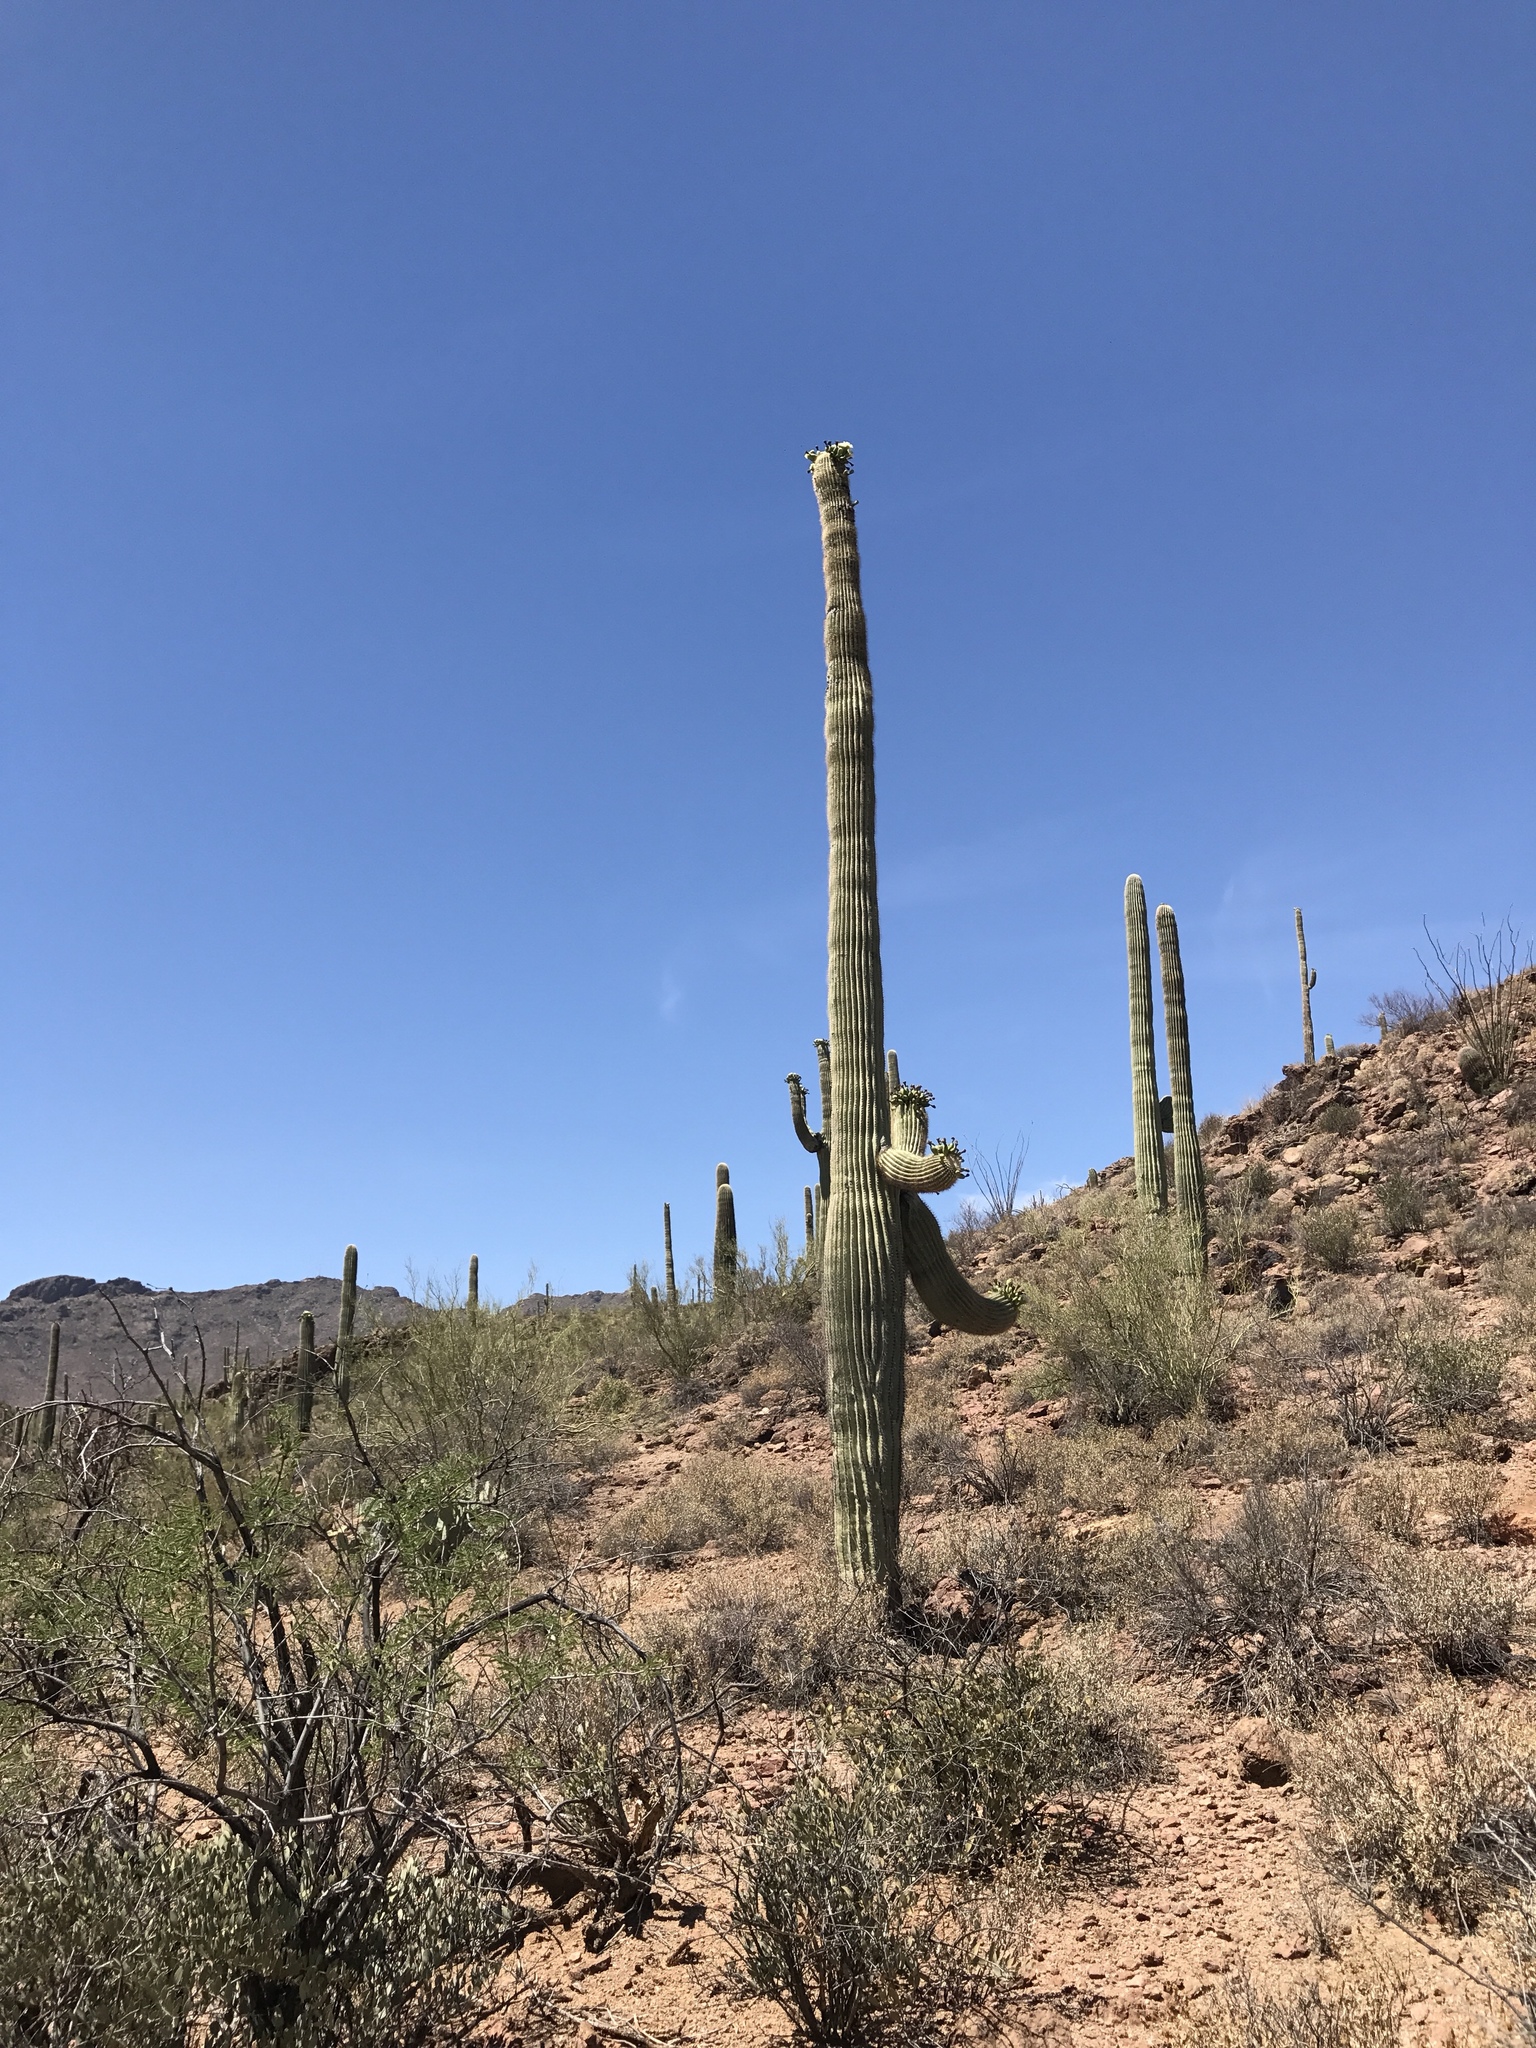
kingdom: Plantae
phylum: Tracheophyta
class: Magnoliopsida
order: Caryophyllales
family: Cactaceae
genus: Carnegiea
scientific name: Carnegiea gigantea
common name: Saguaro
